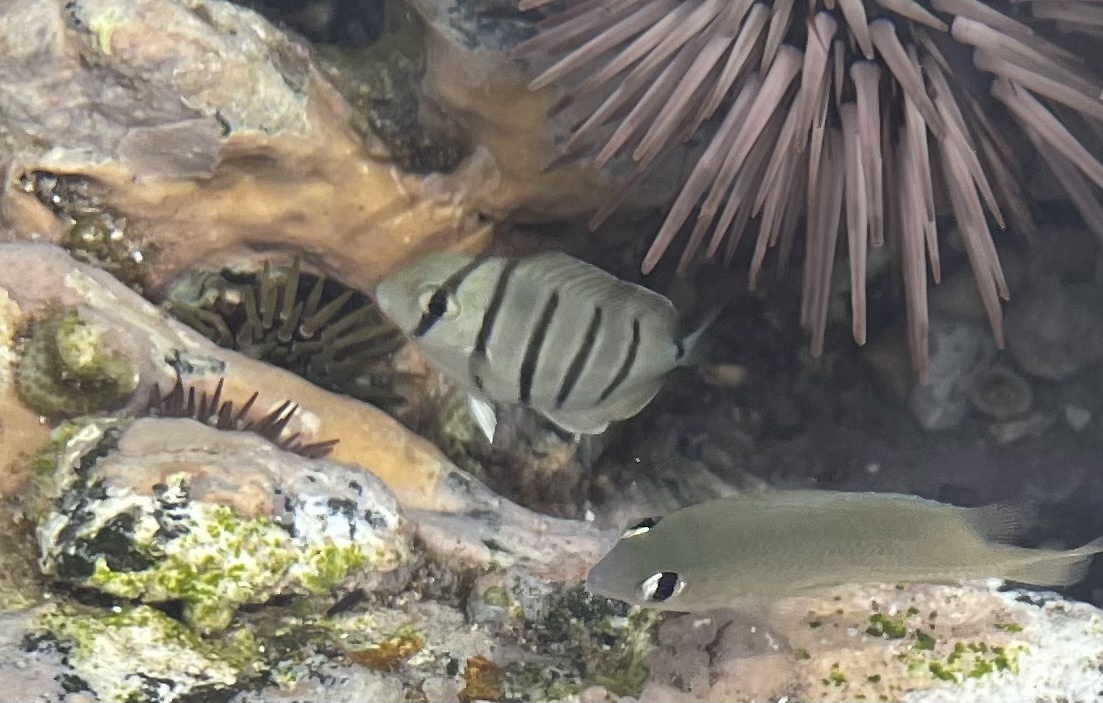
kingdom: Animalia
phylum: Chordata
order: Perciformes
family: Acanthuridae
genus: Acanthurus
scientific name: Acanthurus triostegus
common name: Convict surgeonfish
